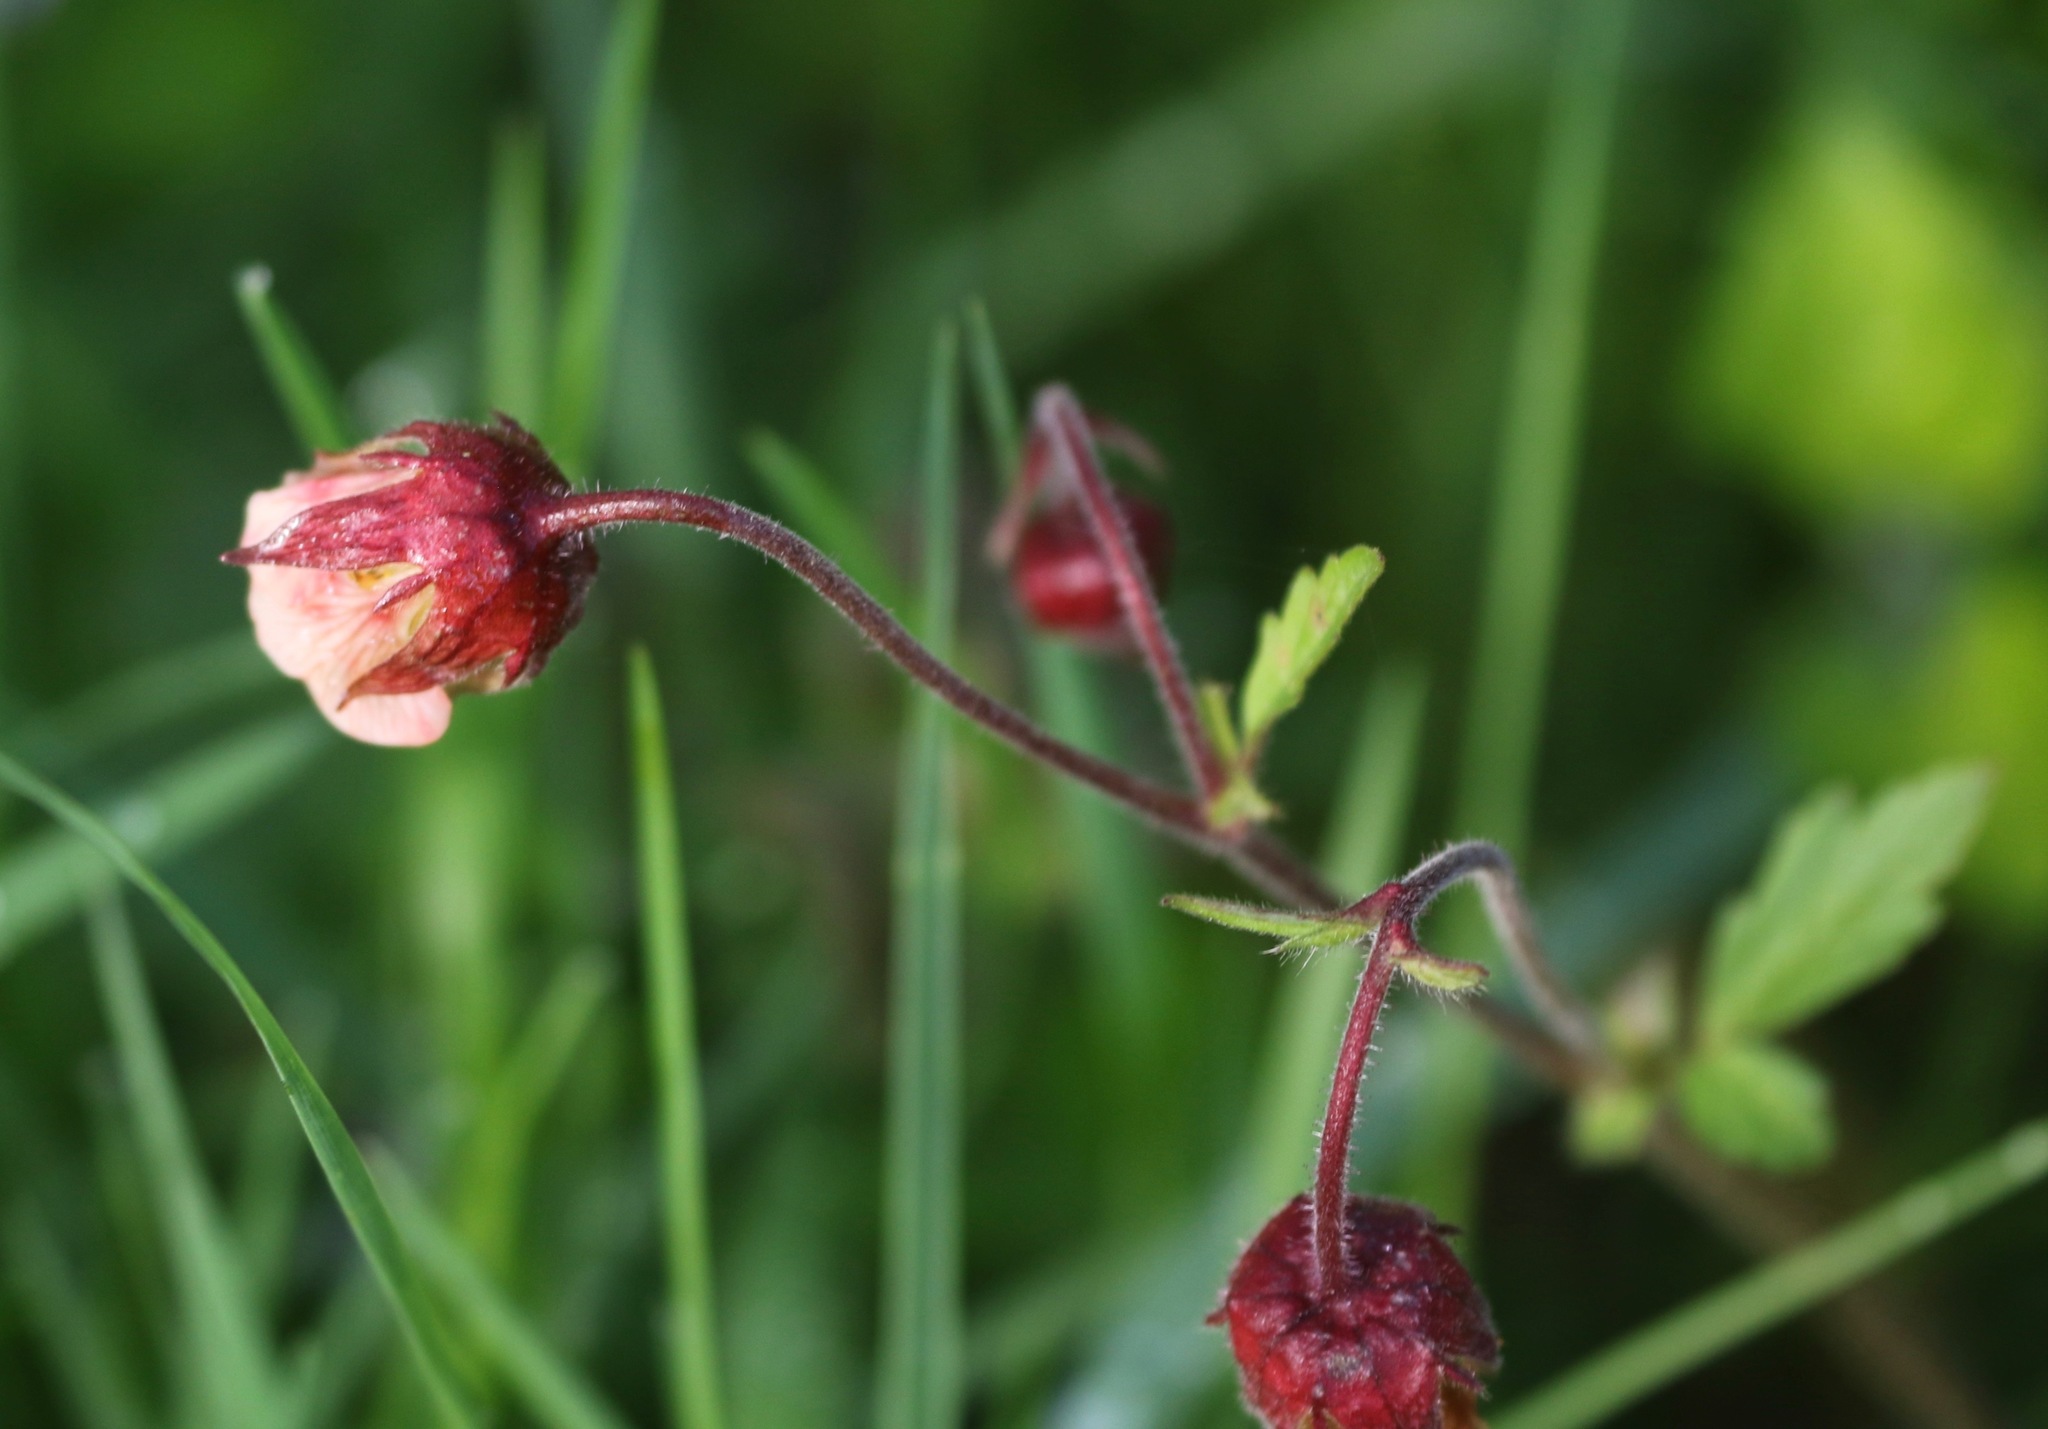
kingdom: Plantae
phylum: Tracheophyta
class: Magnoliopsida
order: Rosales
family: Rosaceae
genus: Geum
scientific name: Geum rivale
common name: Water avens
